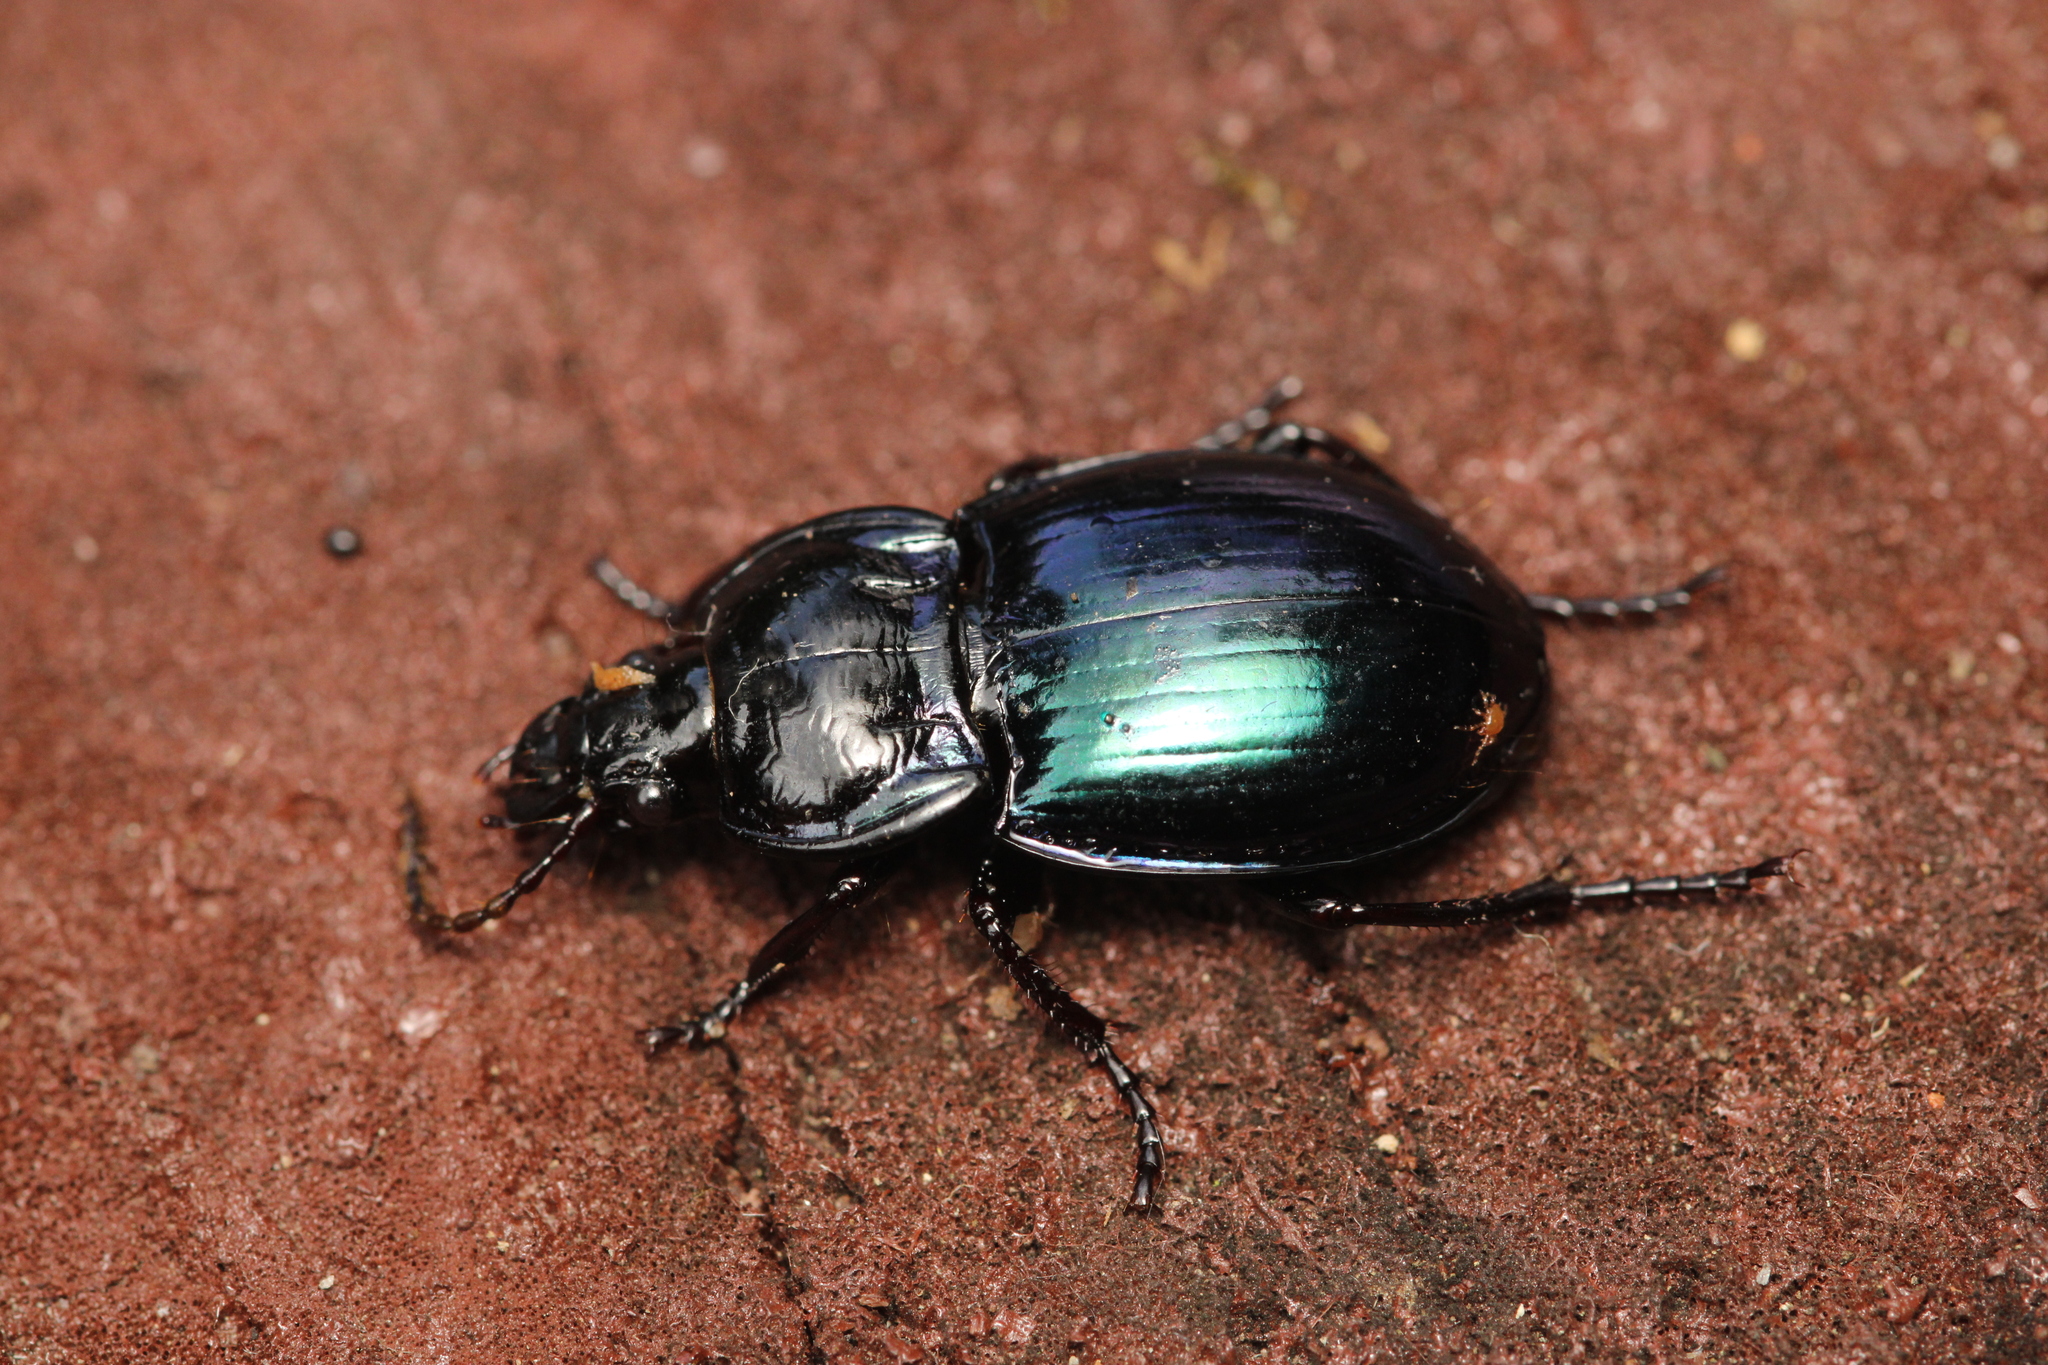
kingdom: Animalia
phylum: Arthropoda
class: Insecta
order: Coleoptera
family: Carabidae
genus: Myas
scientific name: Myas chalybaeus
